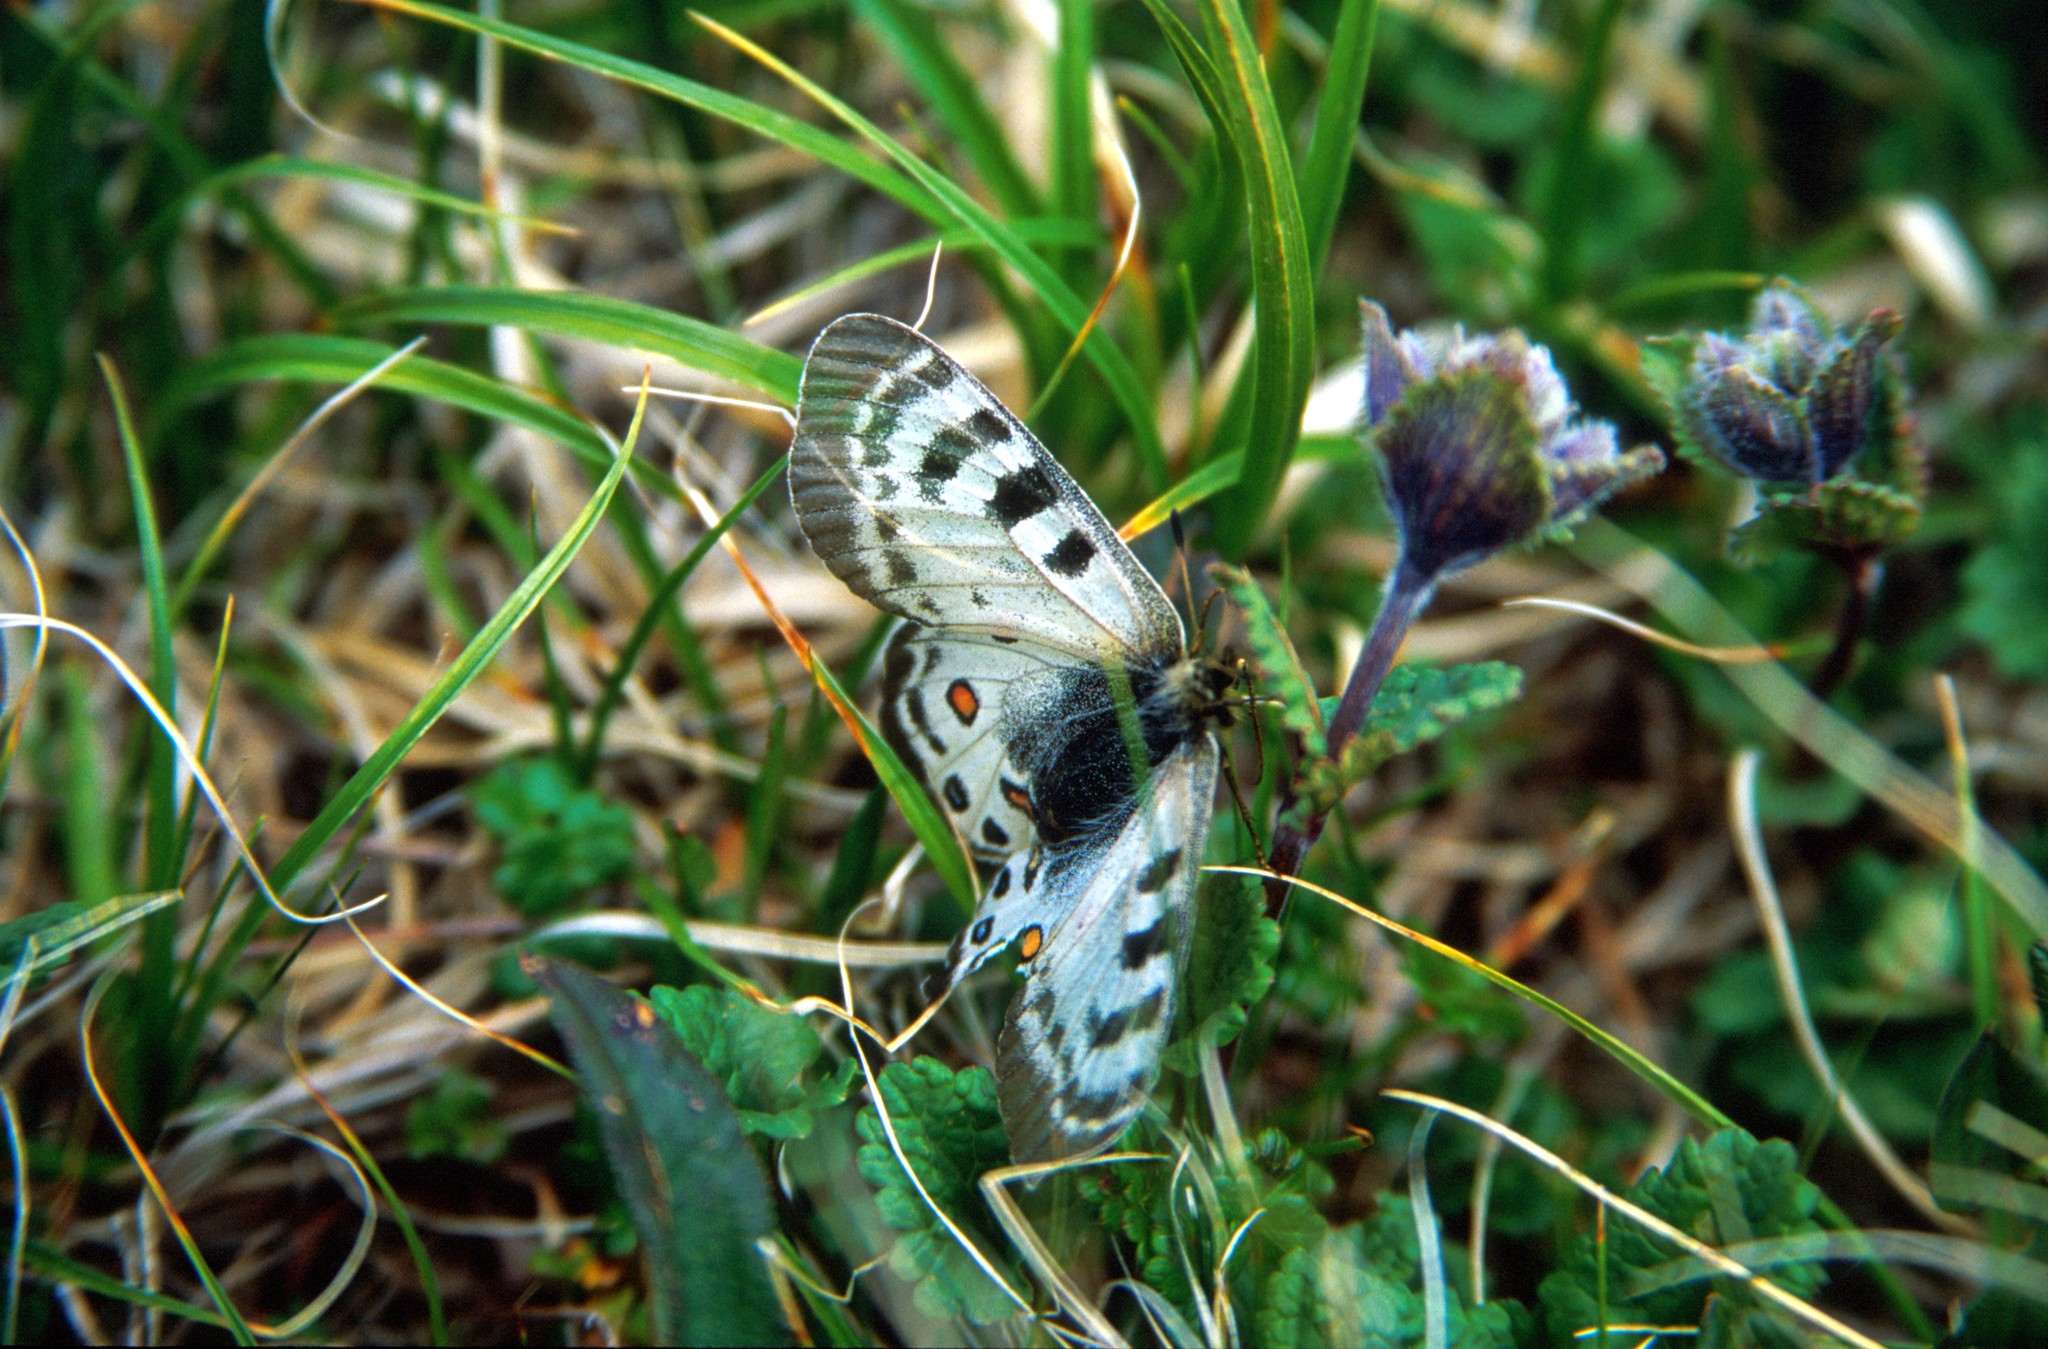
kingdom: Animalia
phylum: Arthropoda
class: Insecta
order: Lepidoptera
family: Papilionidae
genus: Parnassius
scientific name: Parnassius delphius
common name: Banded apollo
